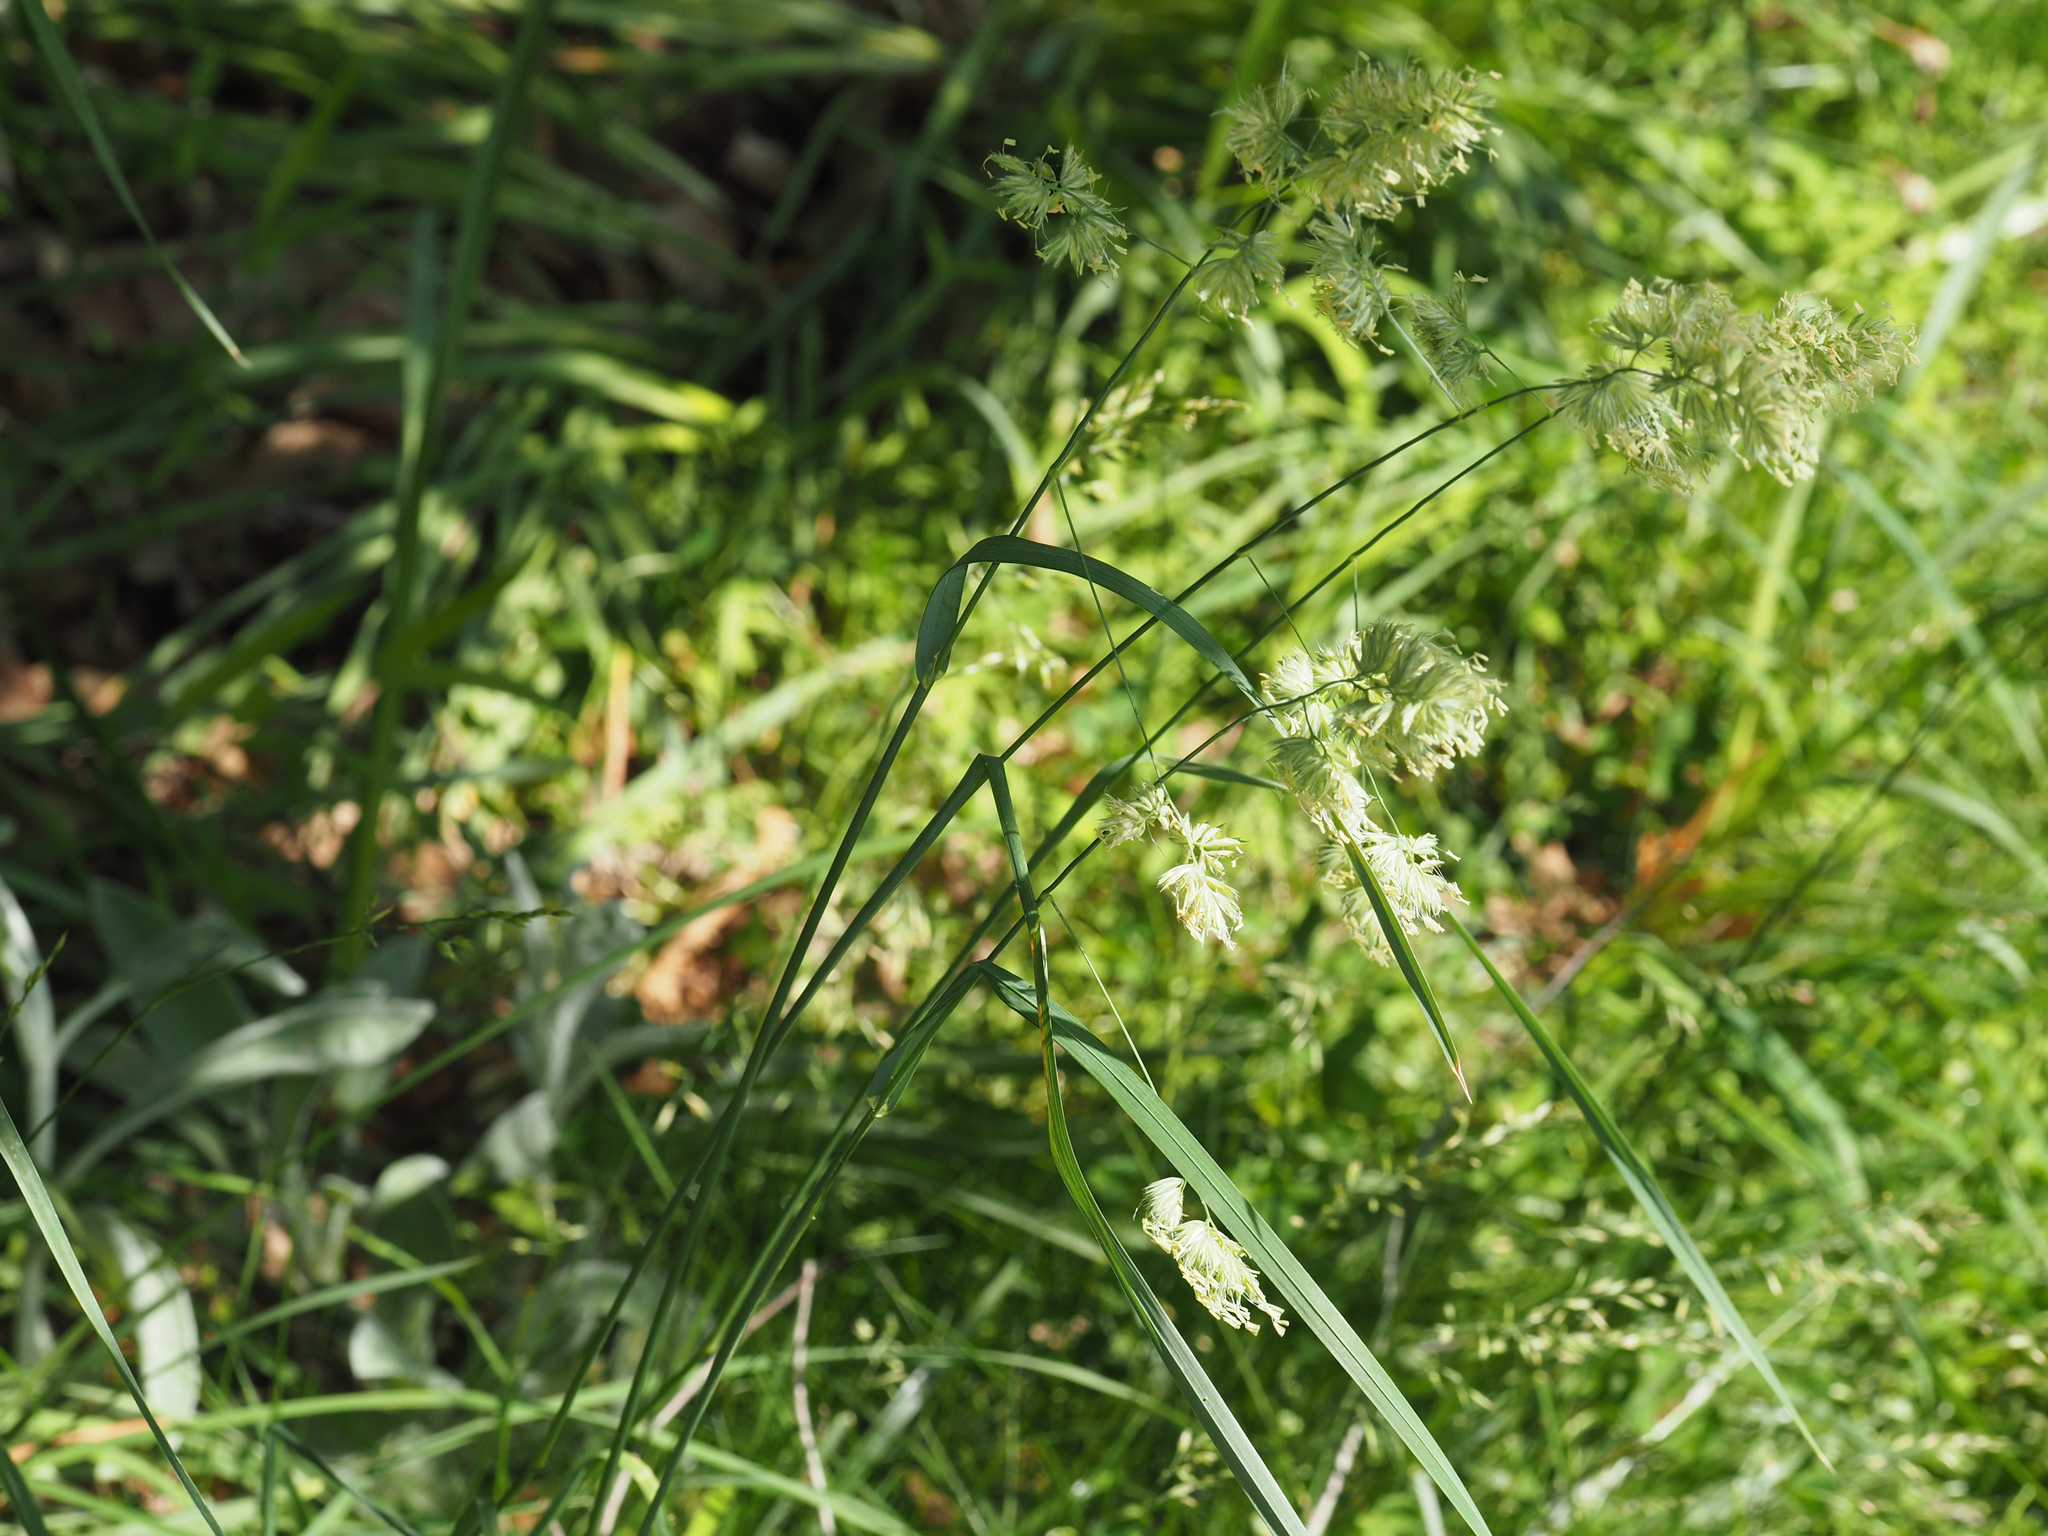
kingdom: Plantae
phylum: Tracheophyta
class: Liliopsida
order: Poales
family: Poaceae
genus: Dactylis
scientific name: Dactylis glomerata
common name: Orchardgrass
